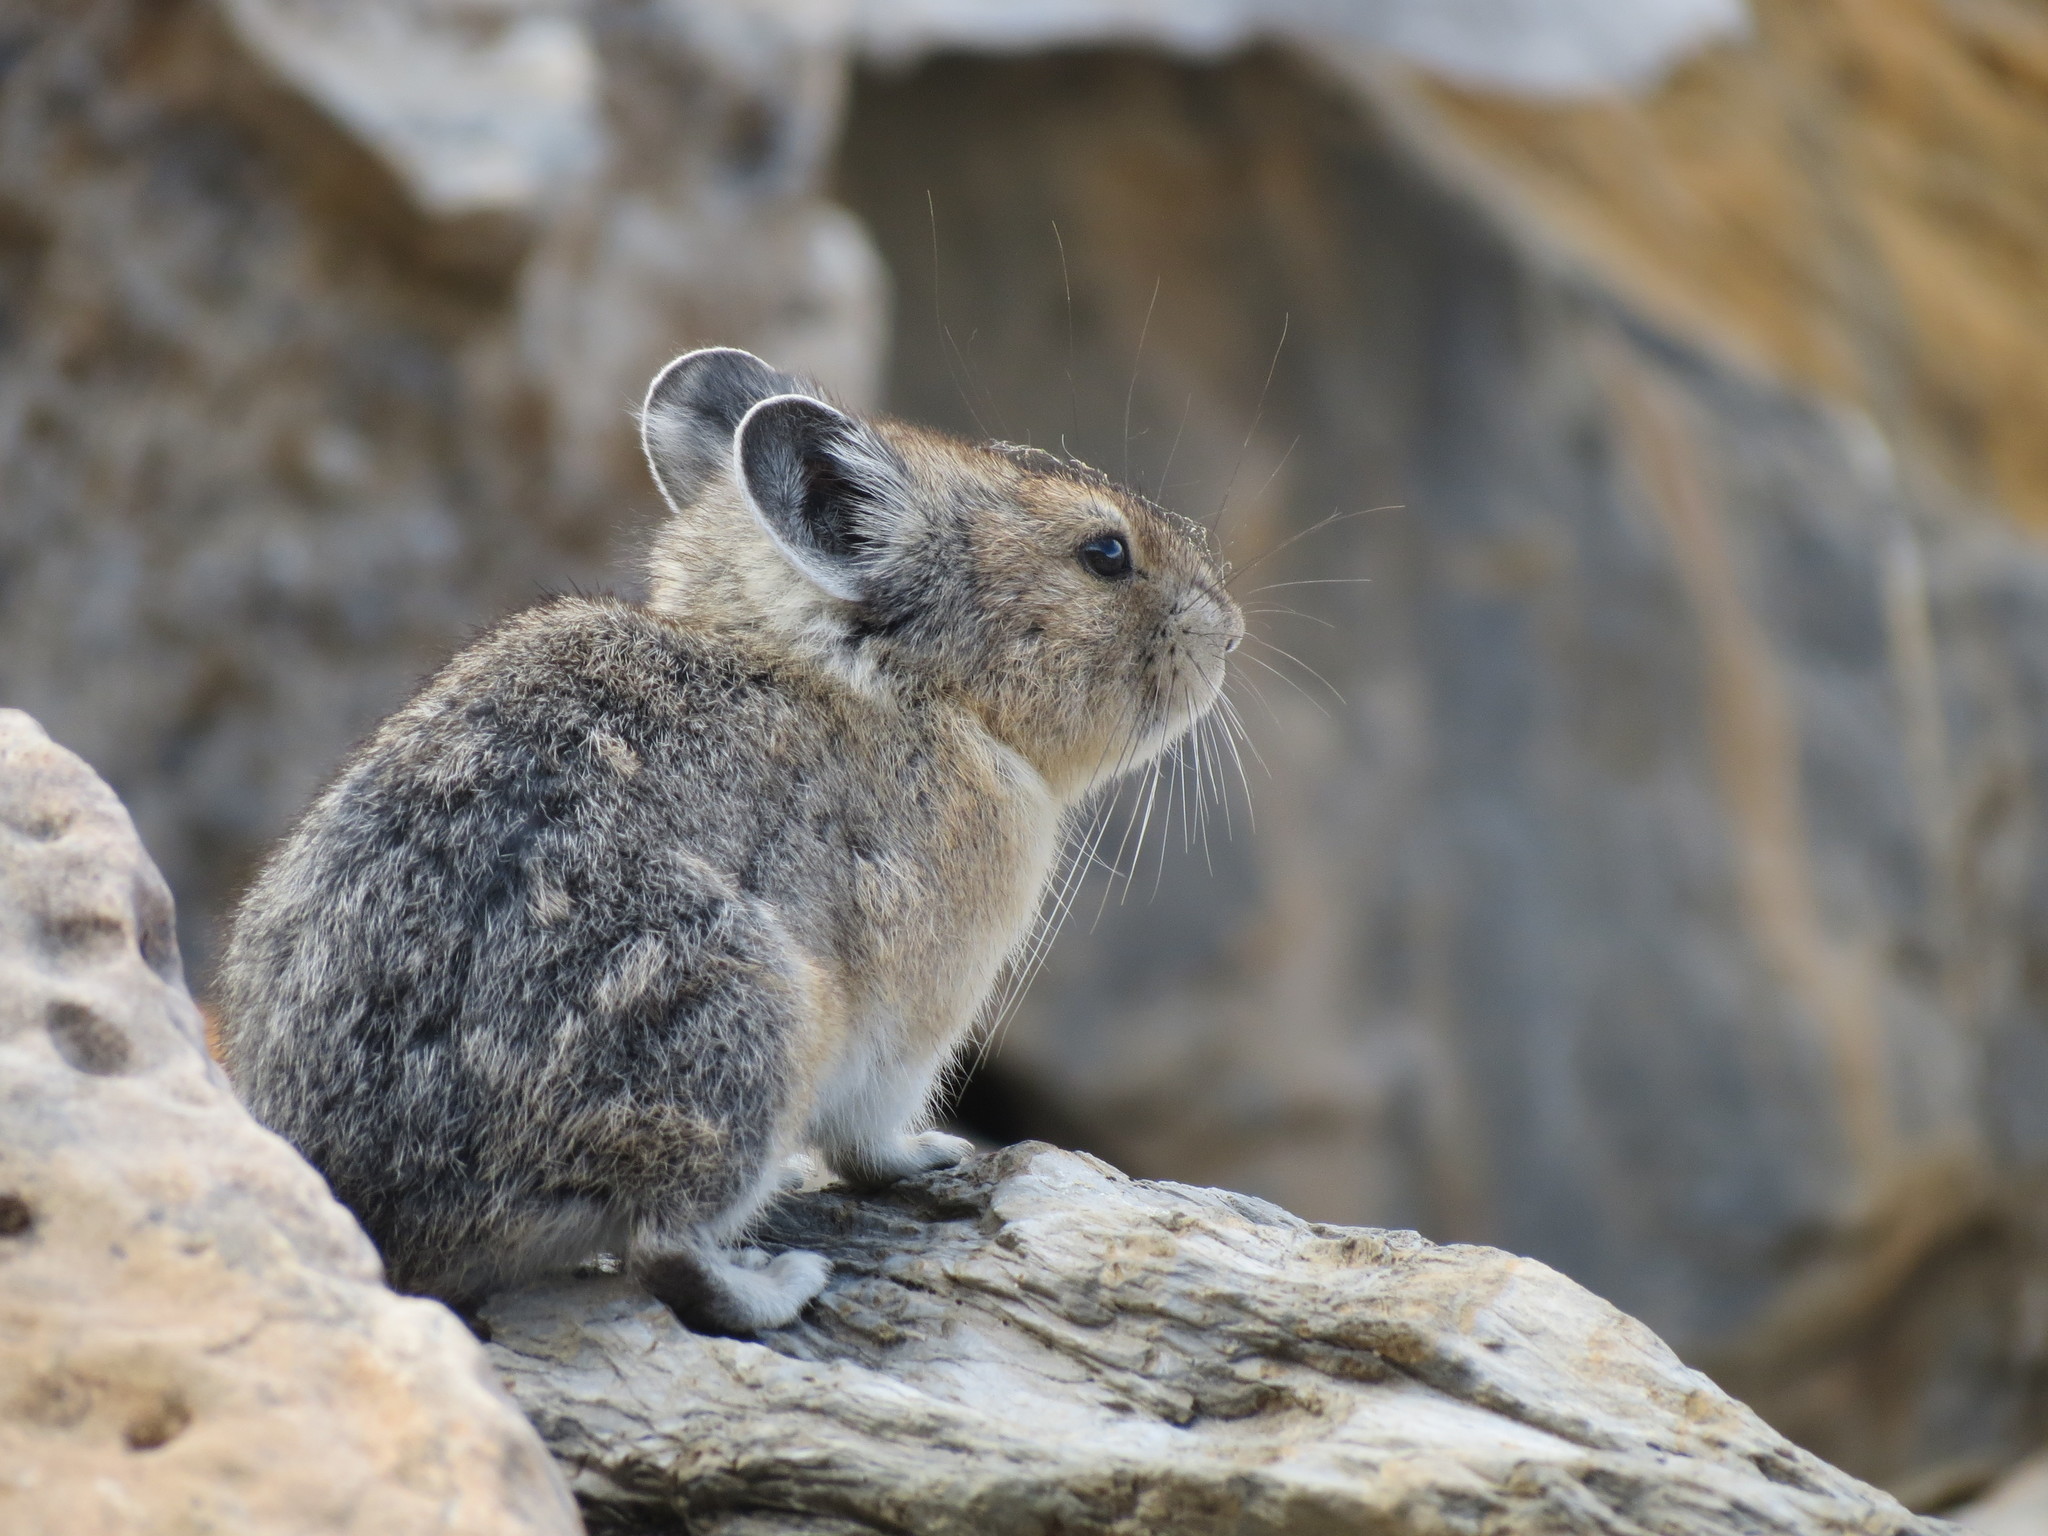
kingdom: Animalia
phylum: Chordata
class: Mammalia
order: Lagomorpha
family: Ochotonidae
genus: Ochotona
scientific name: Ochotona princeps
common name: American pika
